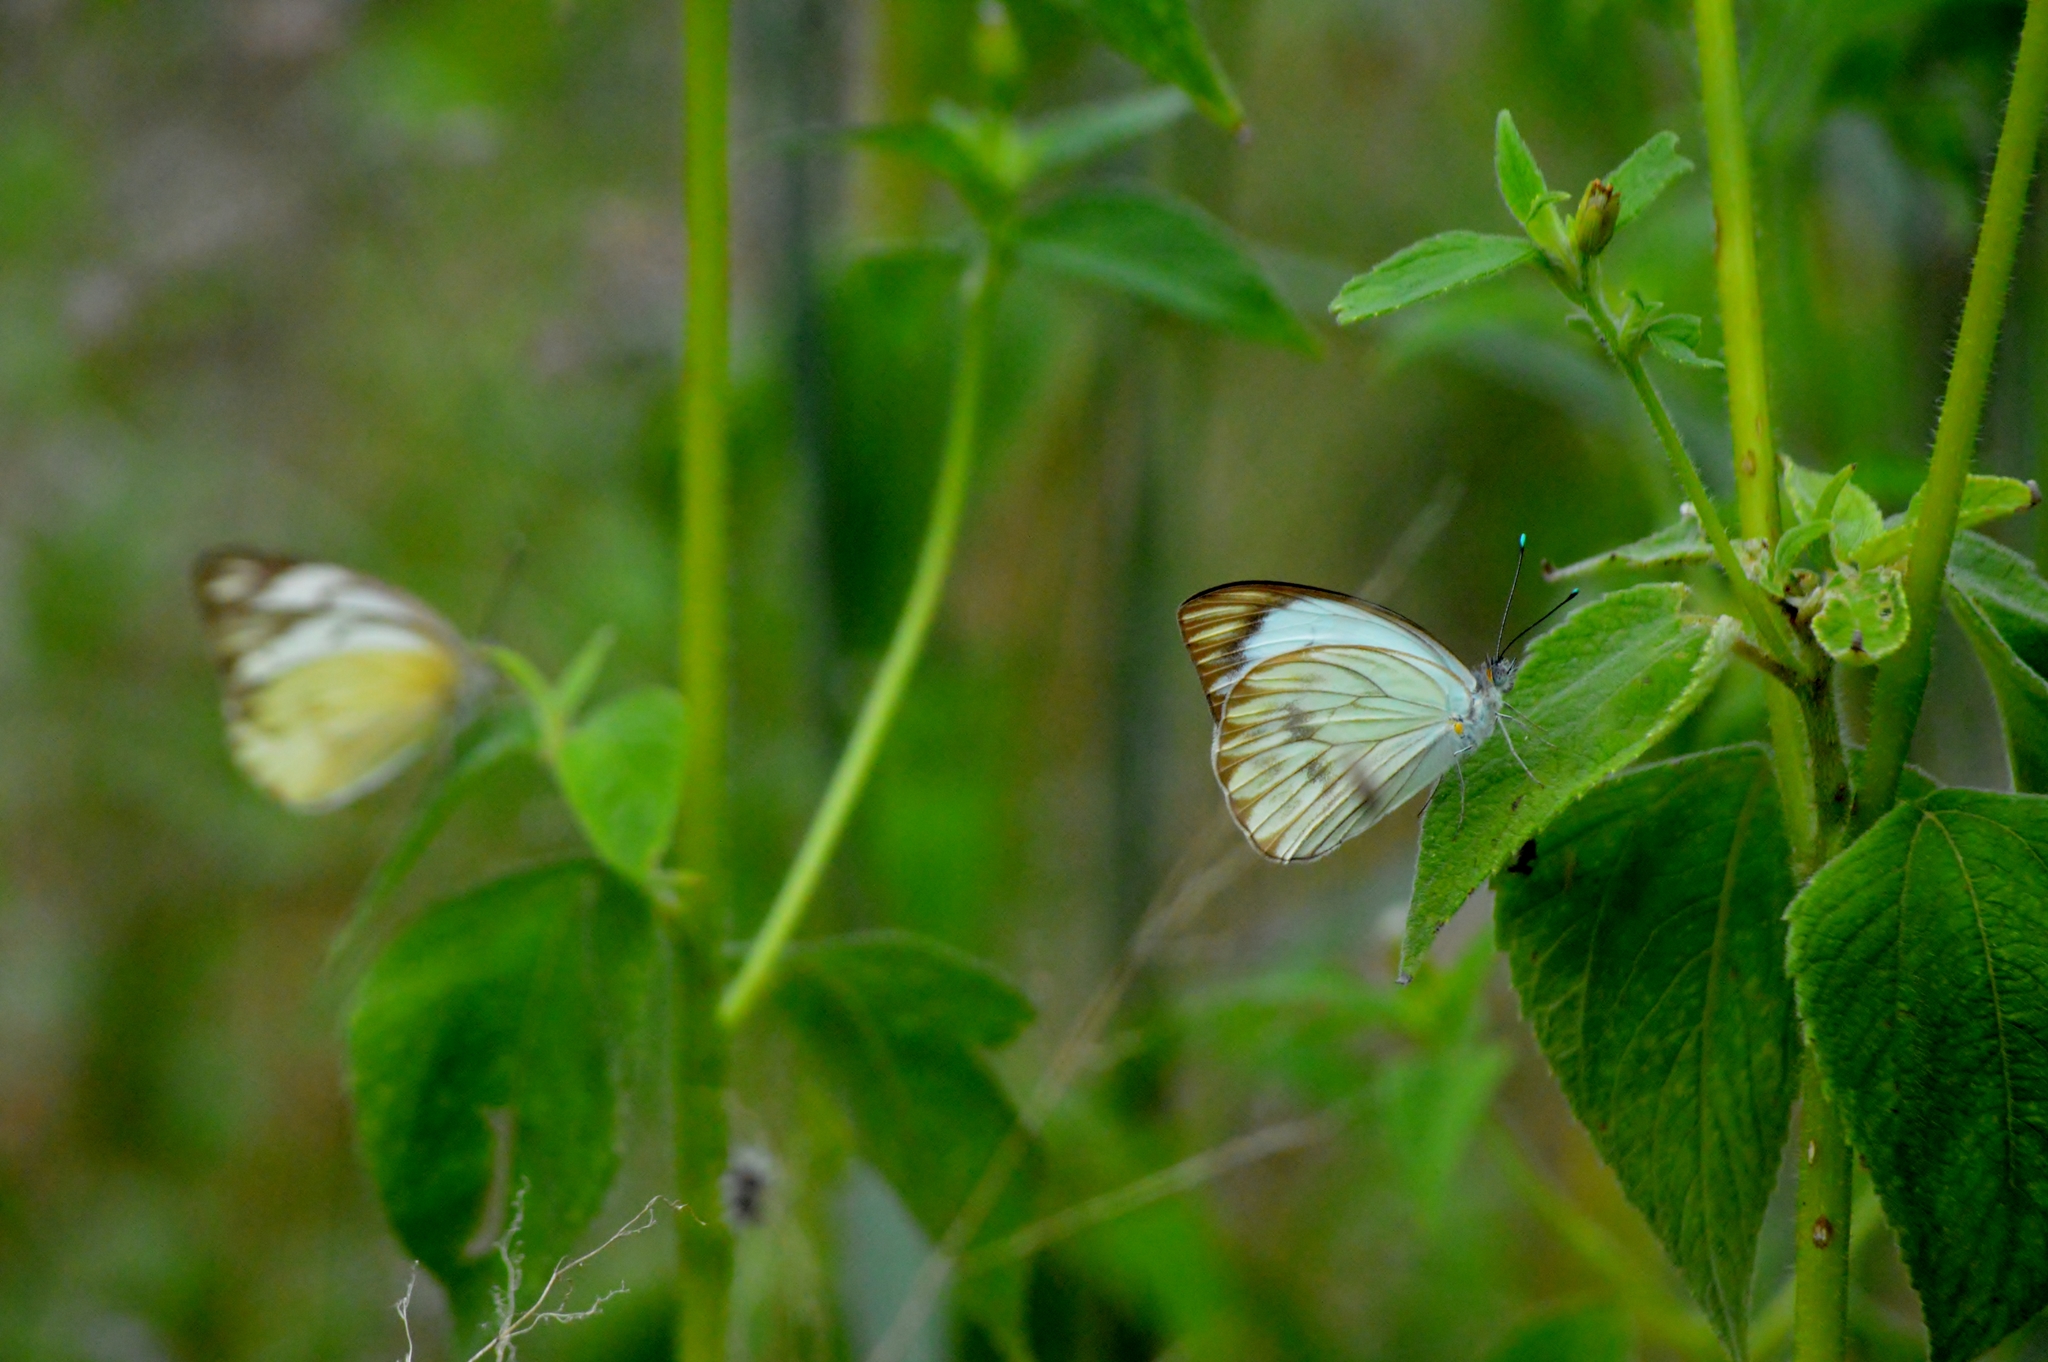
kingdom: Animalia
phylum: Arthropoda
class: Insecta
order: Lepidoptera
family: Pieridae
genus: Ascia
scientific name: Ascia monuste
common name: Great southern white
